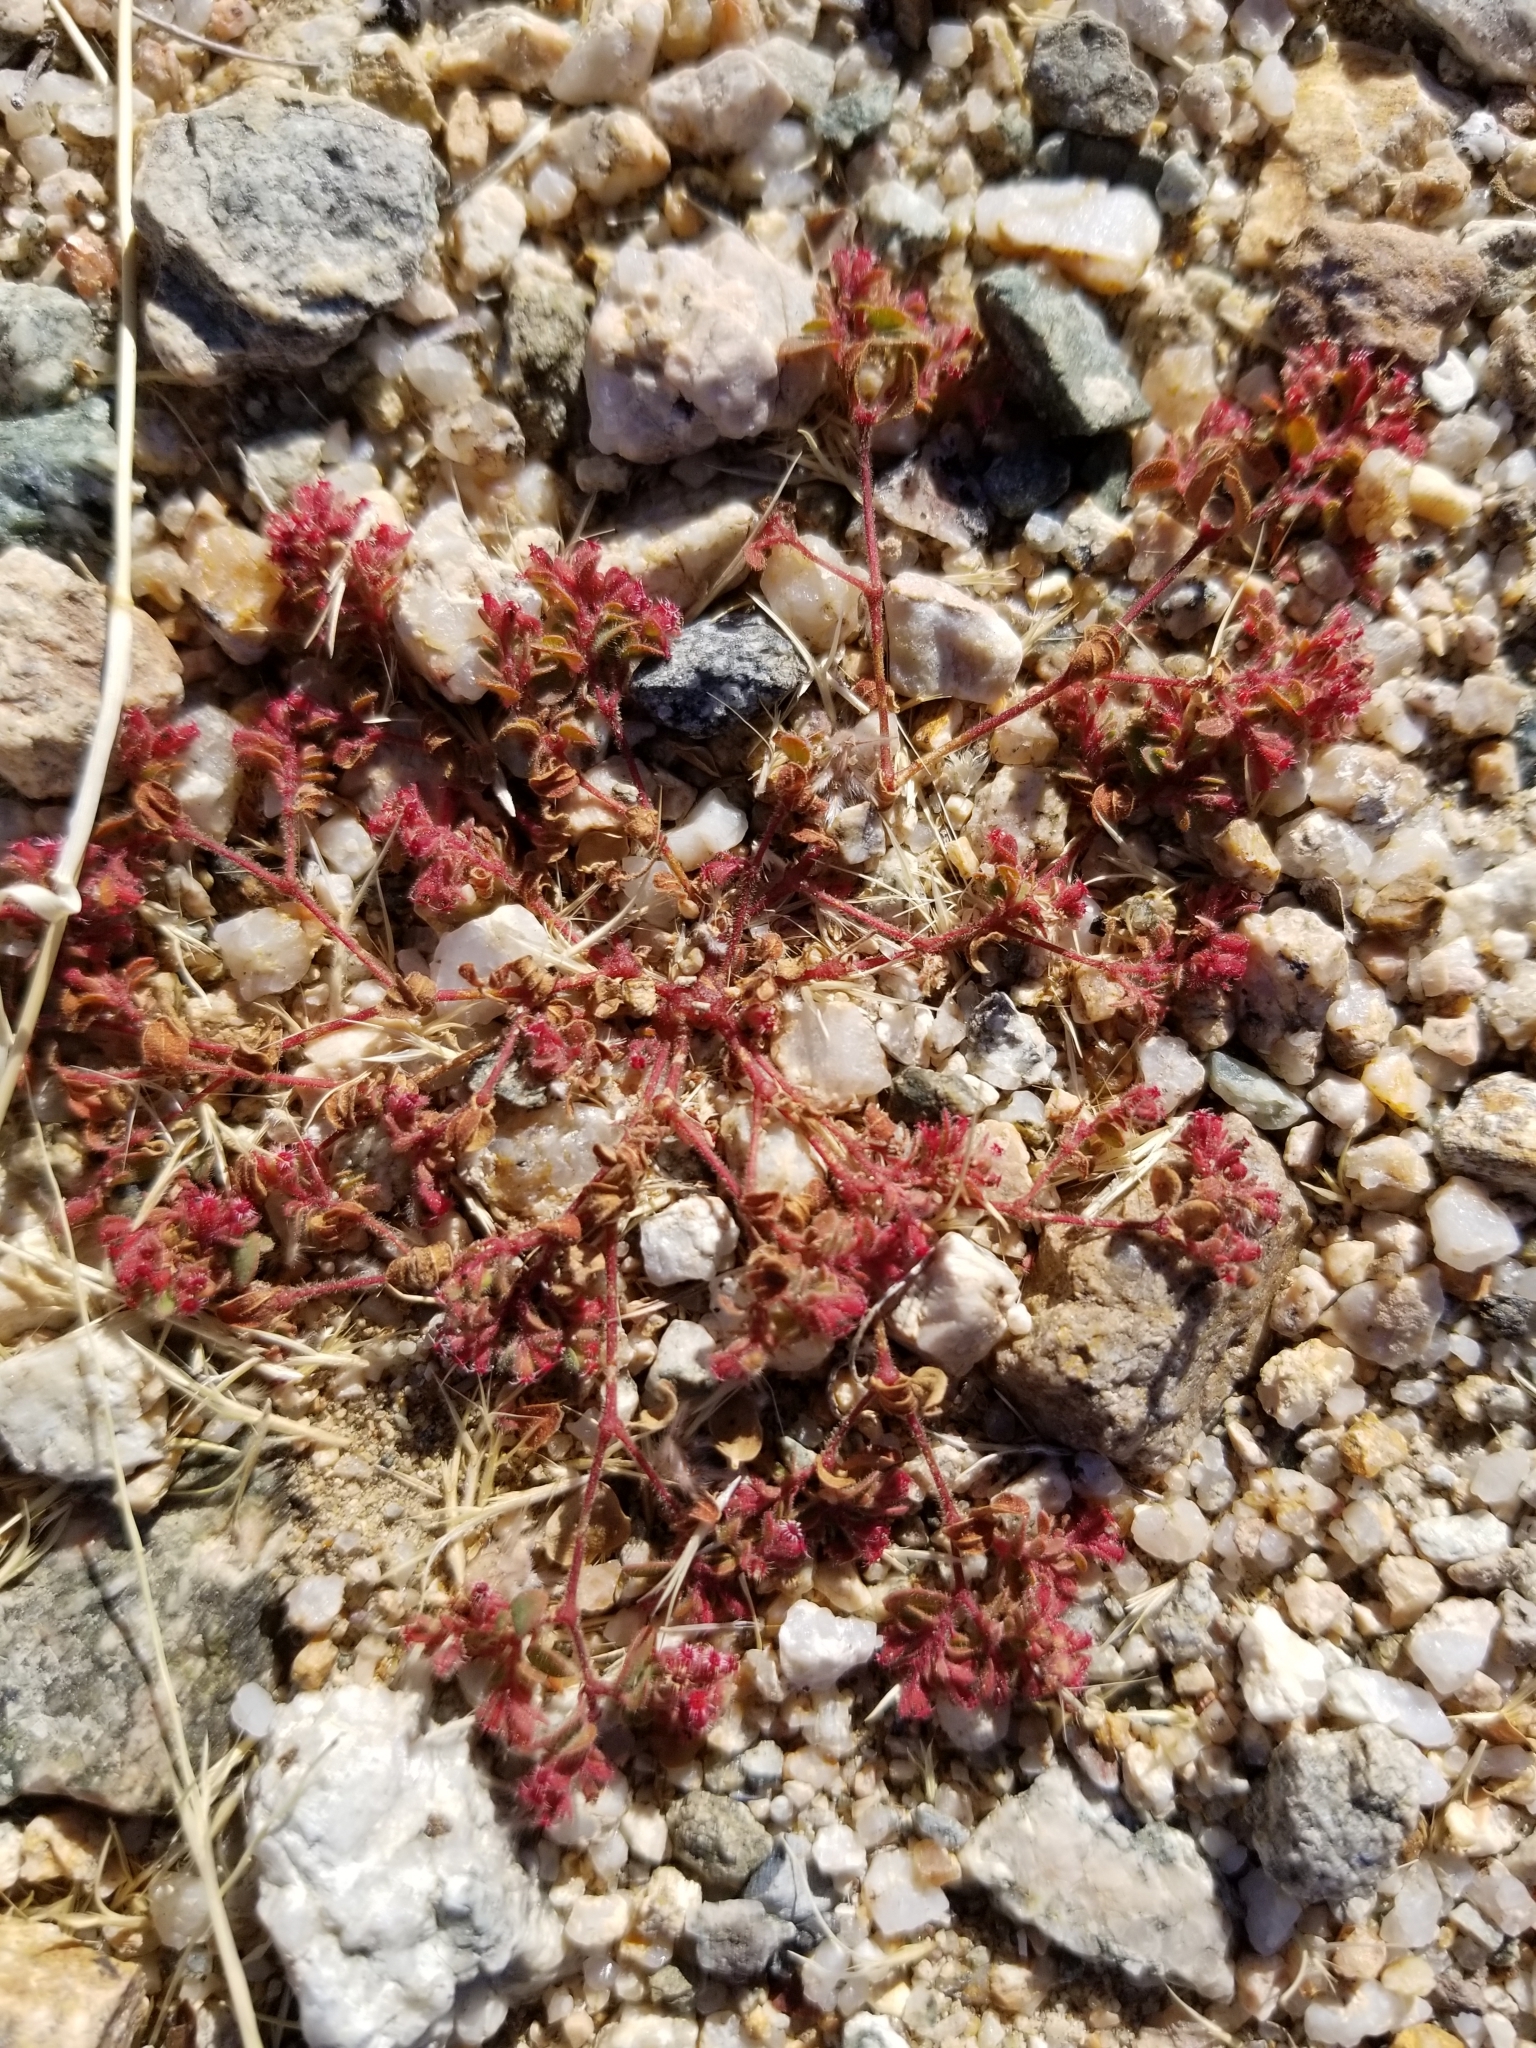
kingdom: Plantae
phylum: Tracheophyta
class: Magnoliopsida
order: Malpighiales
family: Euphorbiaceae
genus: Euphorbia
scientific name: Euphorbia setiloba
